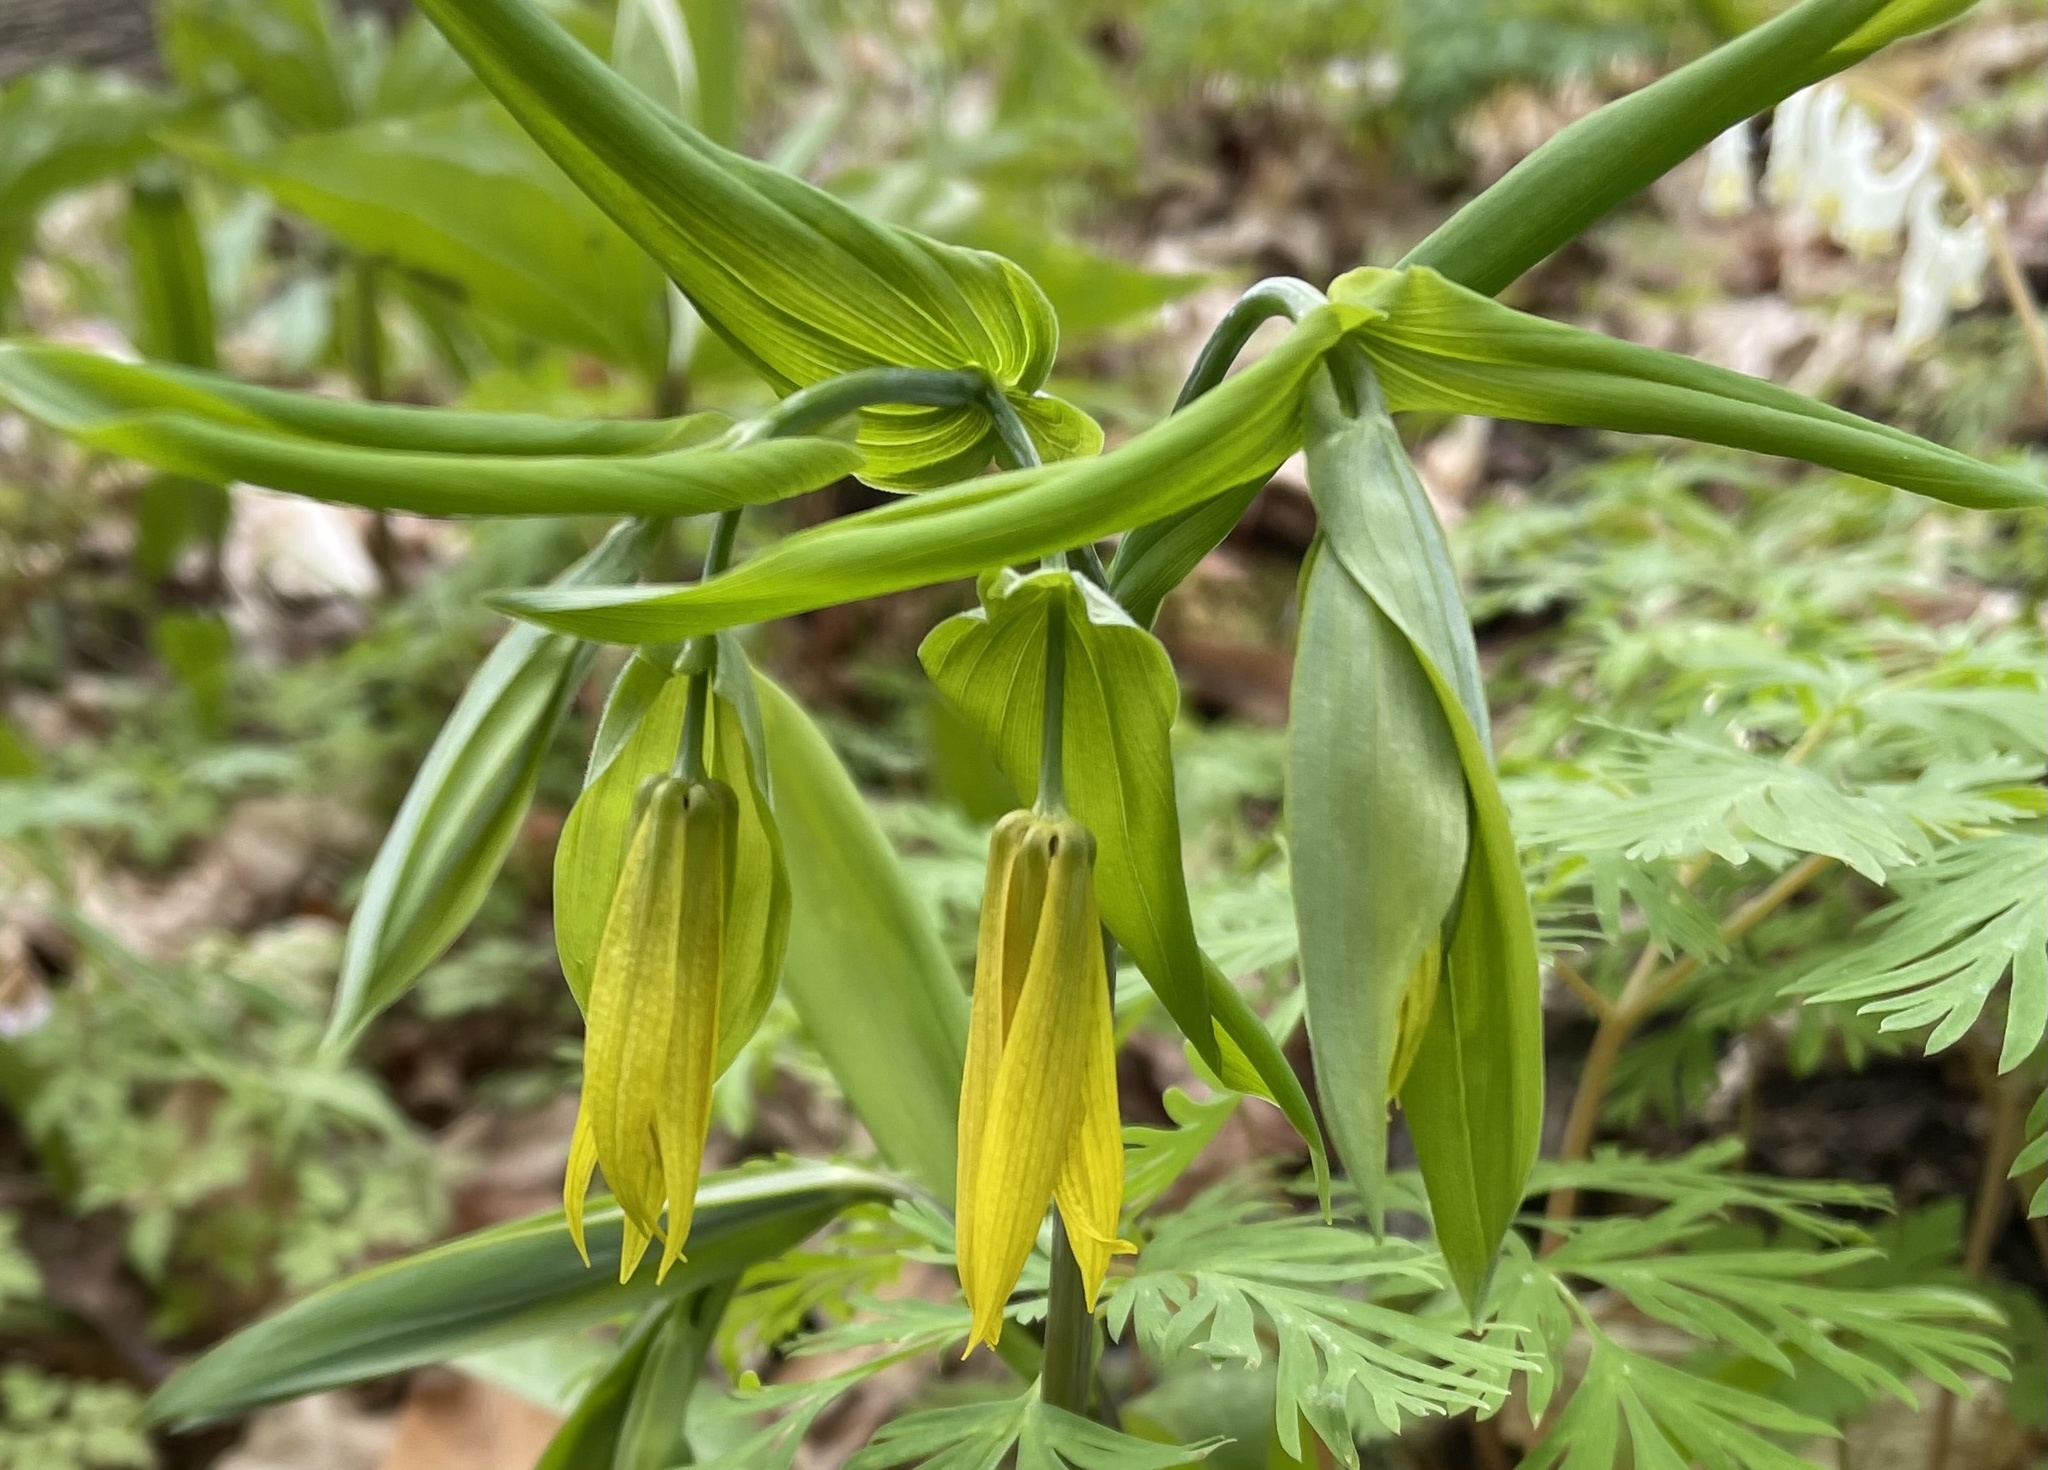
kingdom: Plantae
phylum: Tracheophyta
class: Liliopsida
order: Liliales
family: Colchicaceae
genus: Uvularia
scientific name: Uvularia grandiflora
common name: Bellwort
